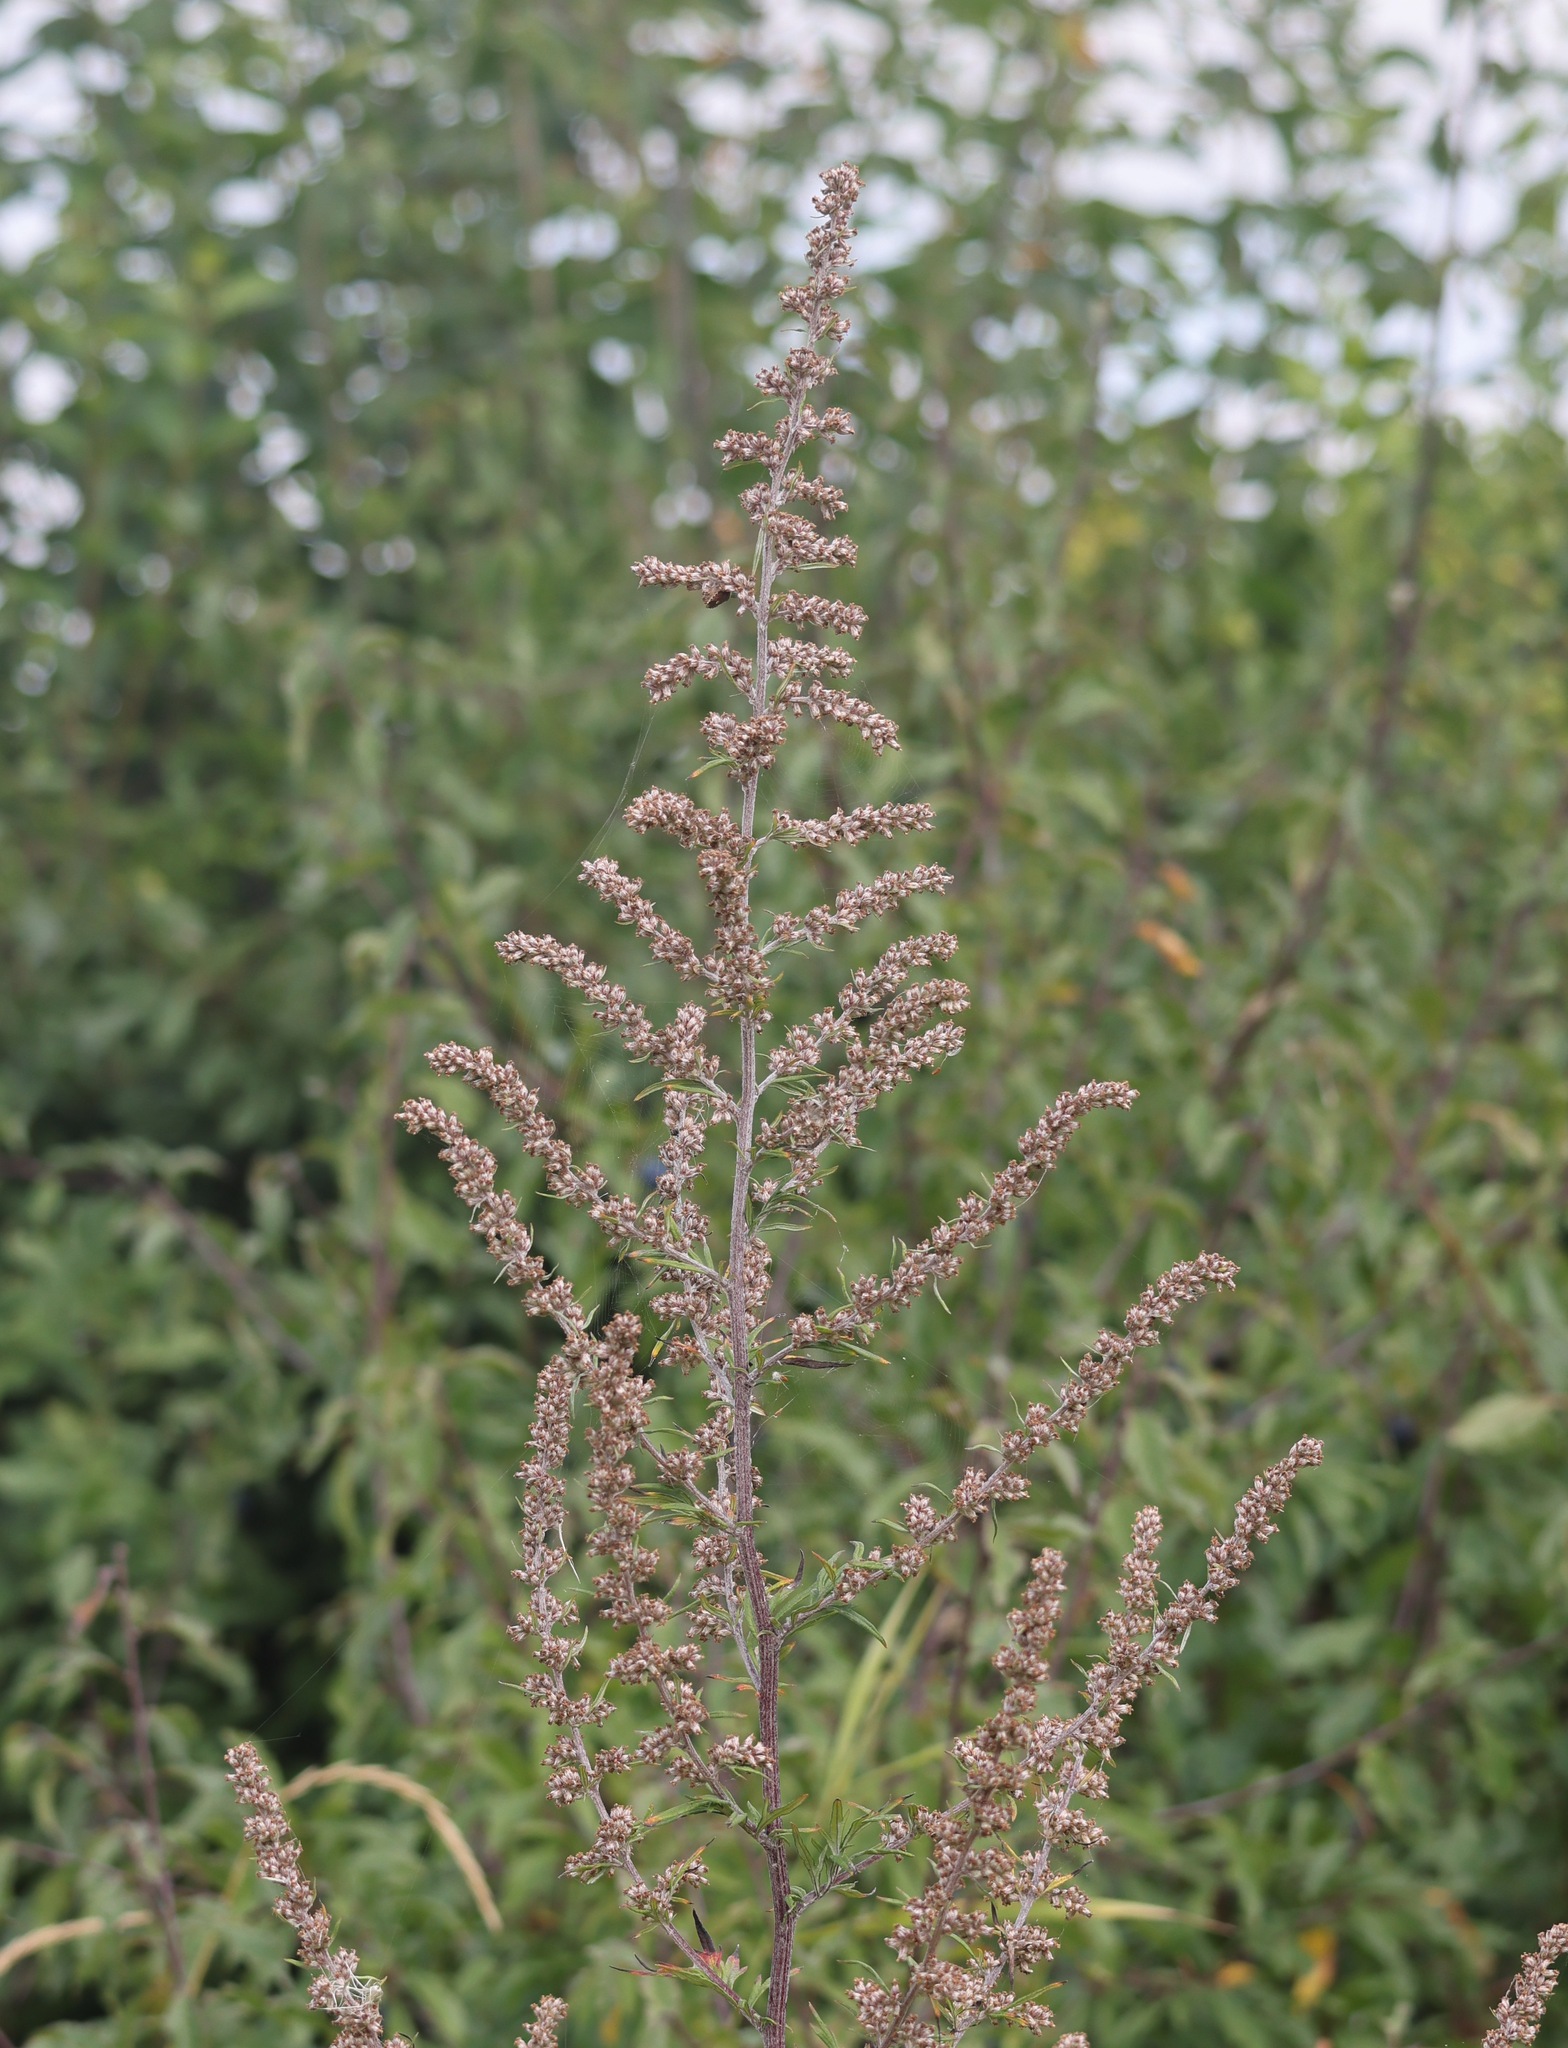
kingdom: Plantae
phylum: Tracheophyta
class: Magnoliopsida
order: Asterales
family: Asteraceae
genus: Artemisia
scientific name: Artemisia vulgaris
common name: Mugwort
